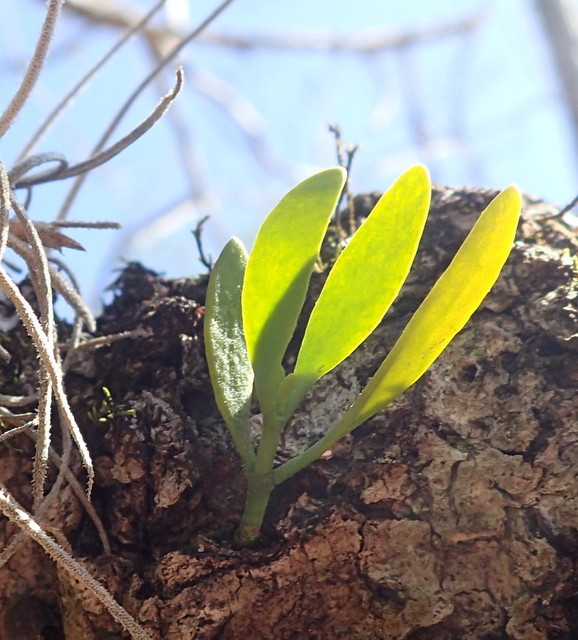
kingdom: Plantae
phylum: Tracheophyta
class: Magnoliopsida
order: Santalales
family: Viscaceae
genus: Phoradendron
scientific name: Phoradendron leucarpum
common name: Pacific mistletoe
